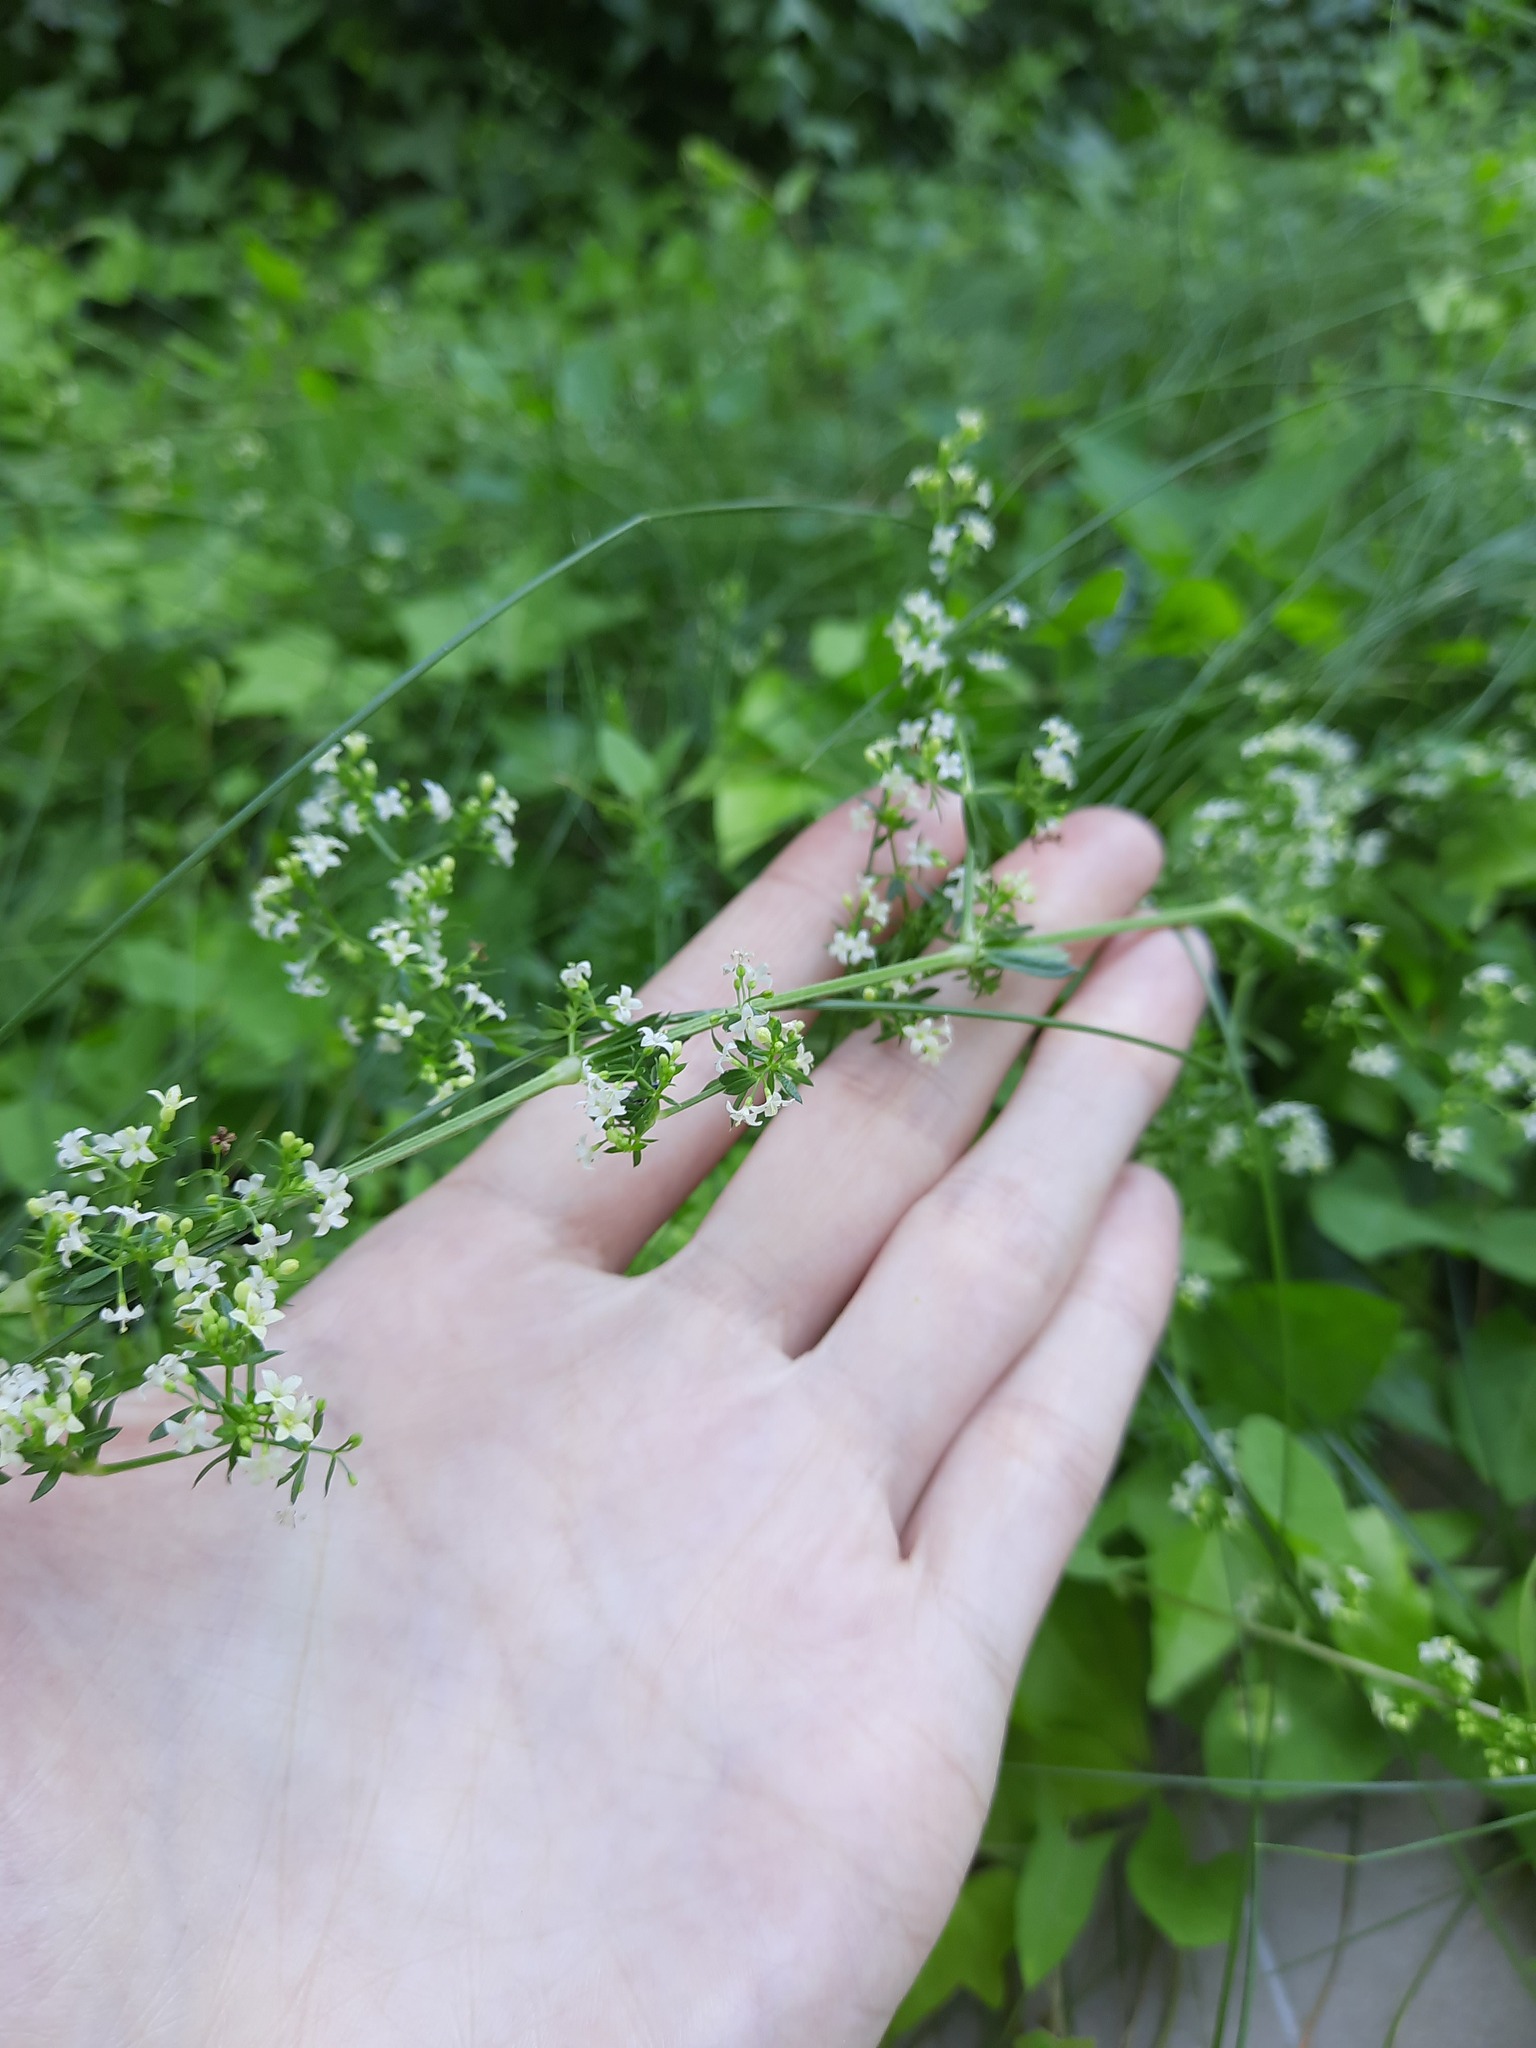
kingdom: Plantae
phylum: Tracheophyta
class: Magnoliopsida
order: Gentianales
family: Rubiaceae
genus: Galium
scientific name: Galium humifusum
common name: Spreading bedstraw
